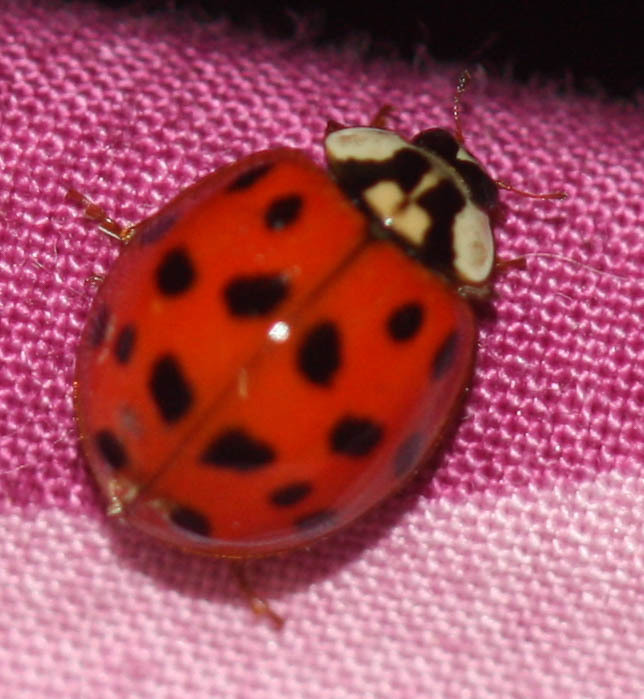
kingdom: Animalia
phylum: Arthropoda
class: Insecta
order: Coleoptera
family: Coccinellidae
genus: Harmonia
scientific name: Harmonia axyridis
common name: Harlequin ladybird
